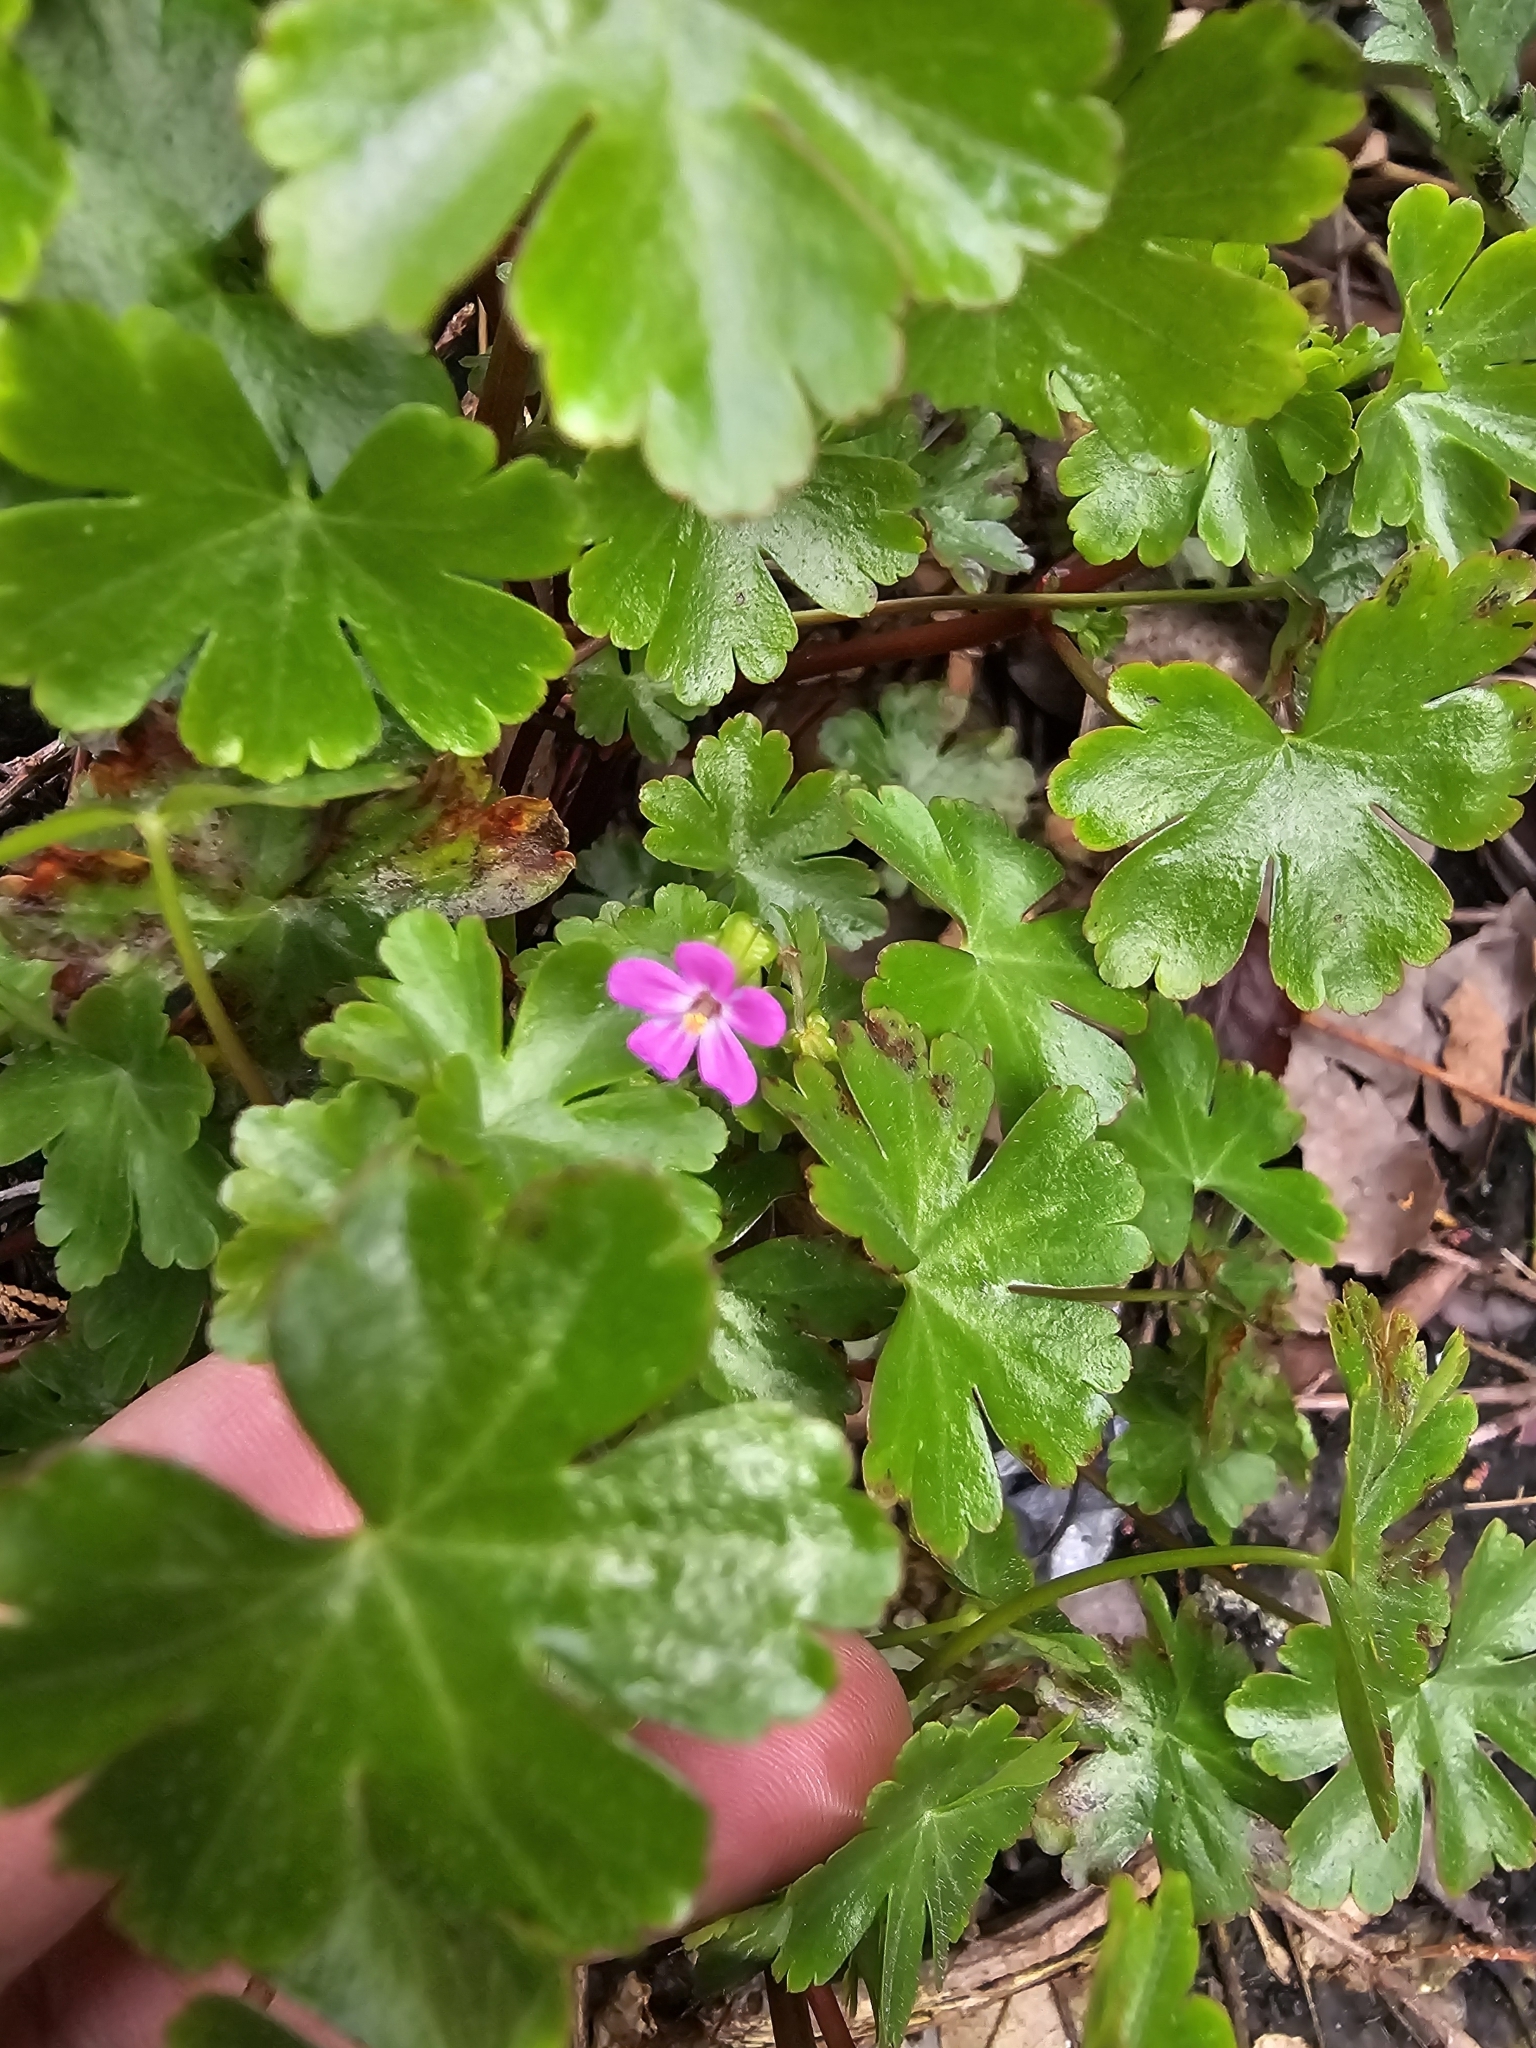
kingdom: Plantae
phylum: Tracheophyta
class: Magnoliopsida
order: Geraniales
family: Geraniaceae
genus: Geranium
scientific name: Geranium lucidum
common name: Shining crane's-bill
